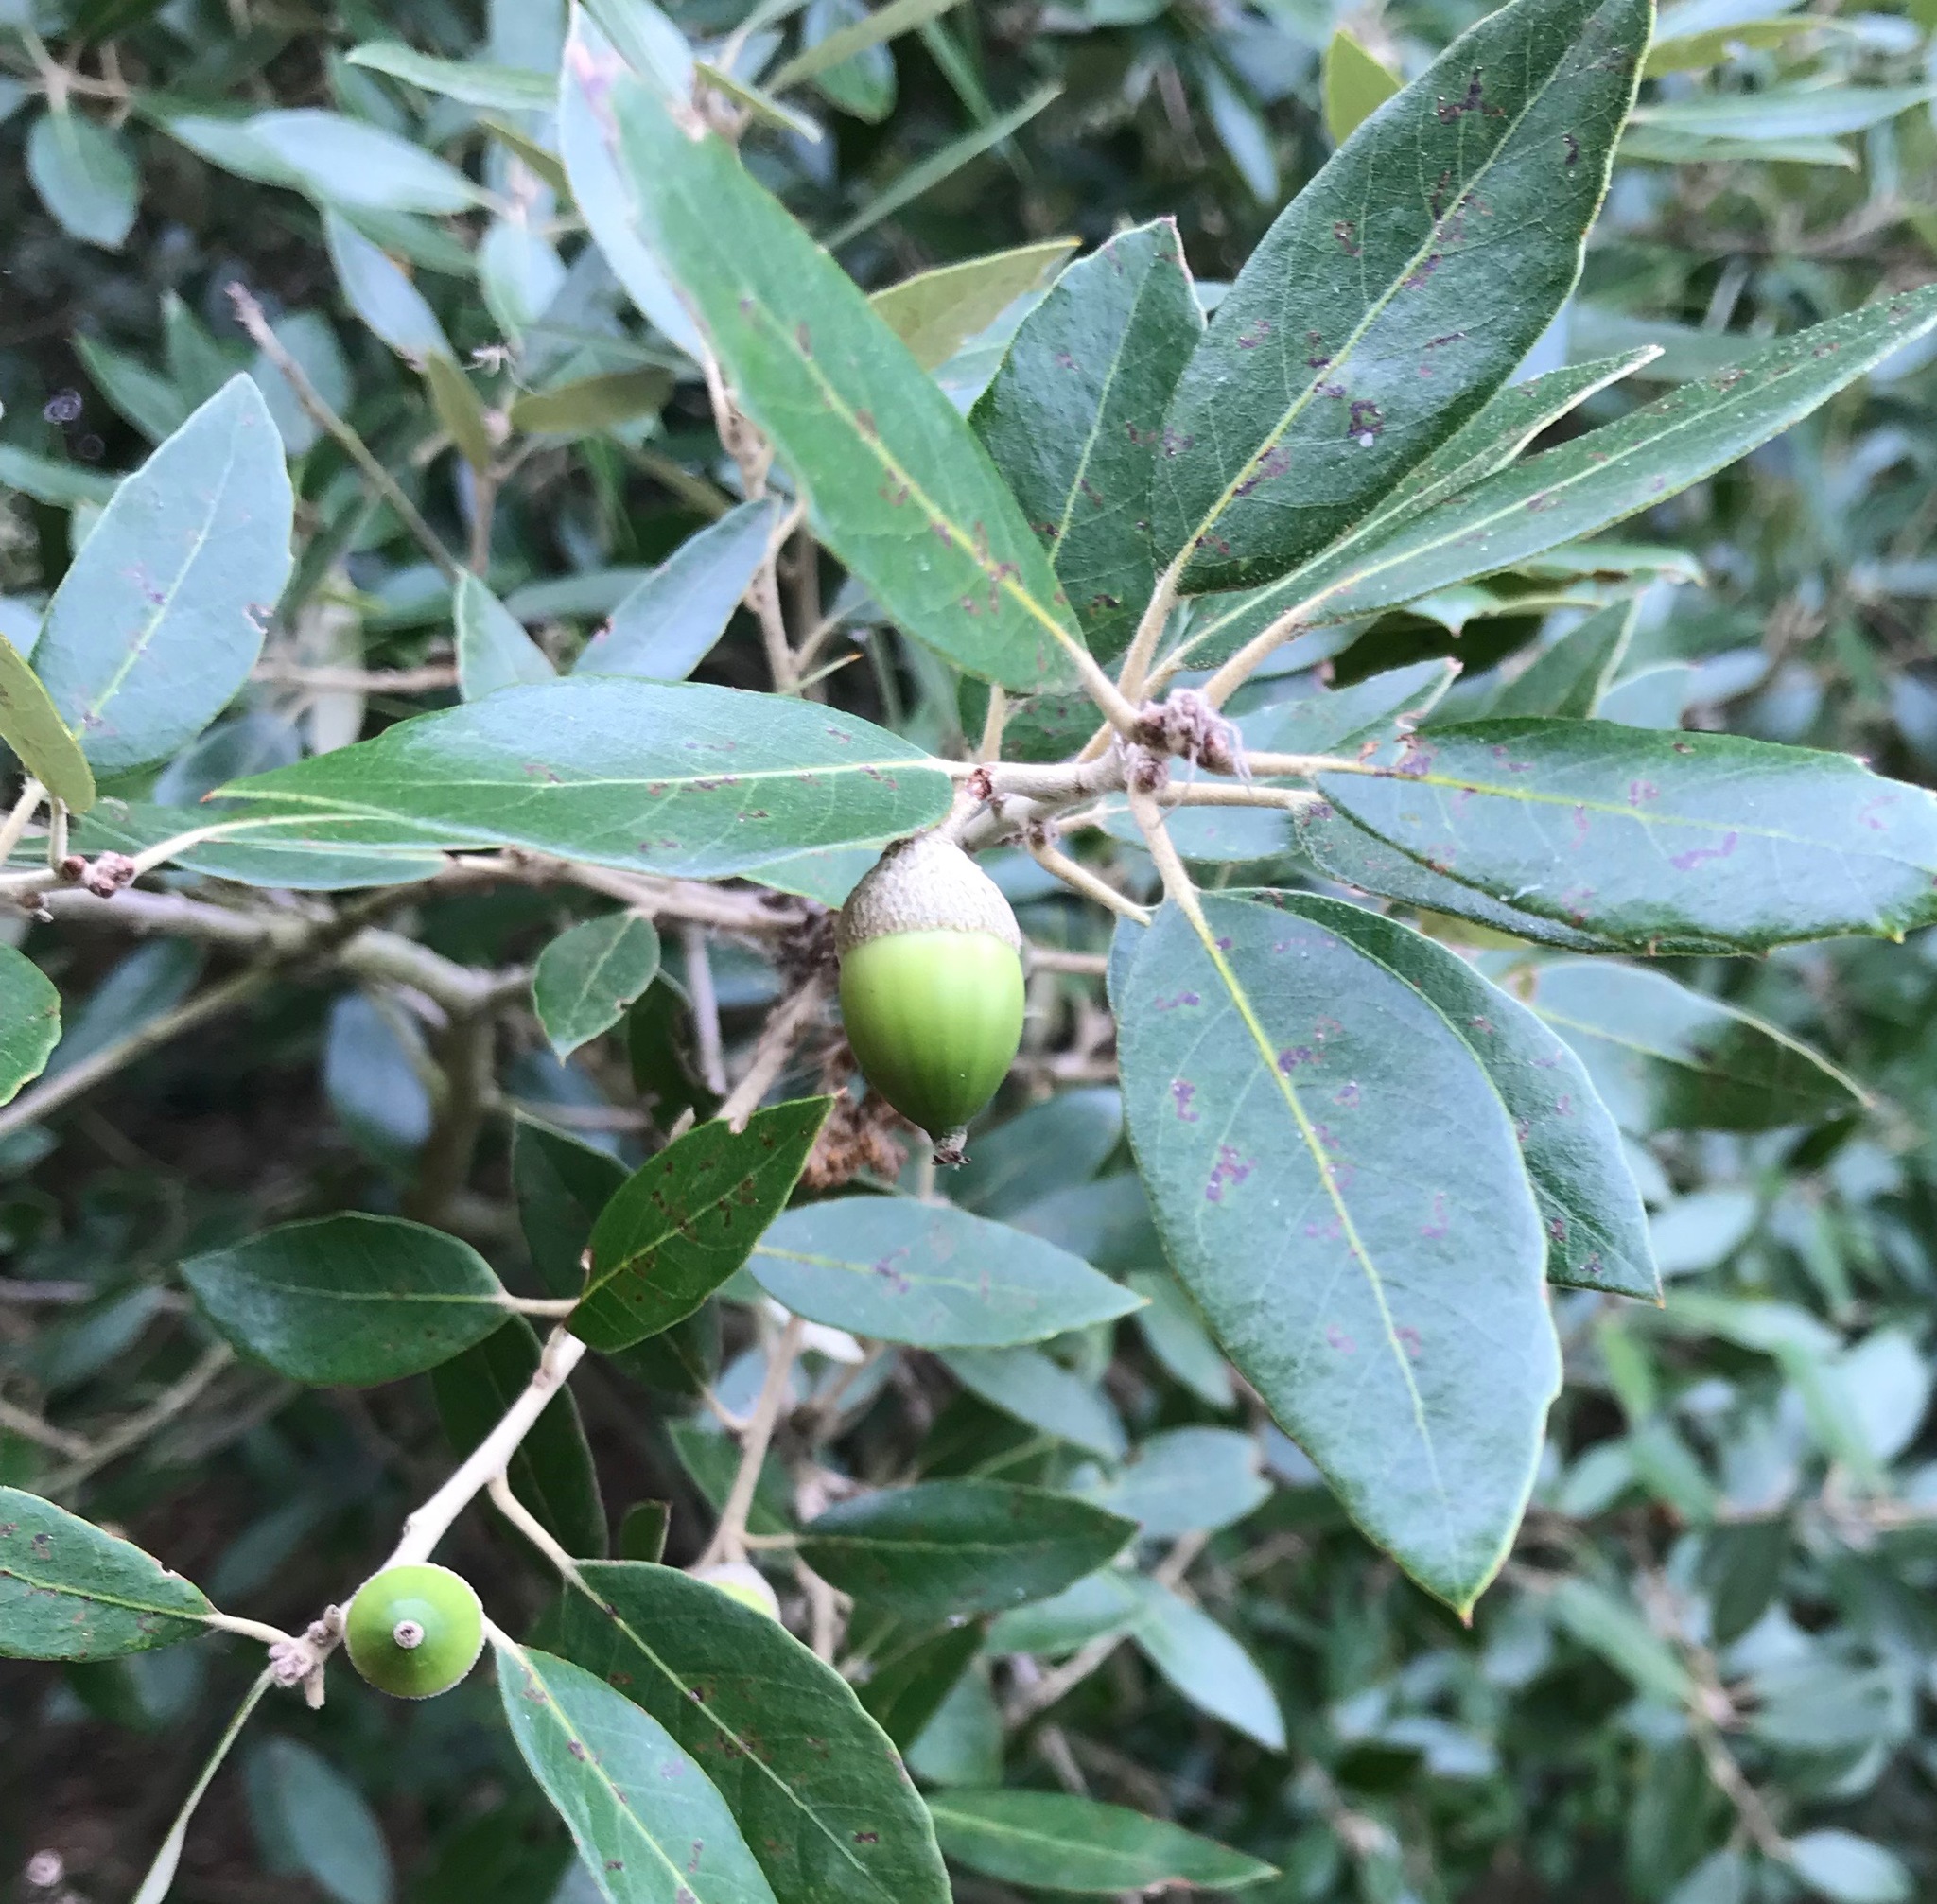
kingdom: Plantae
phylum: Tracheophyta
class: Magnoliopsida
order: Fagales
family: Fagaceae
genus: Quercus
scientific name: Quercus ilex
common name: Evergreen oak
